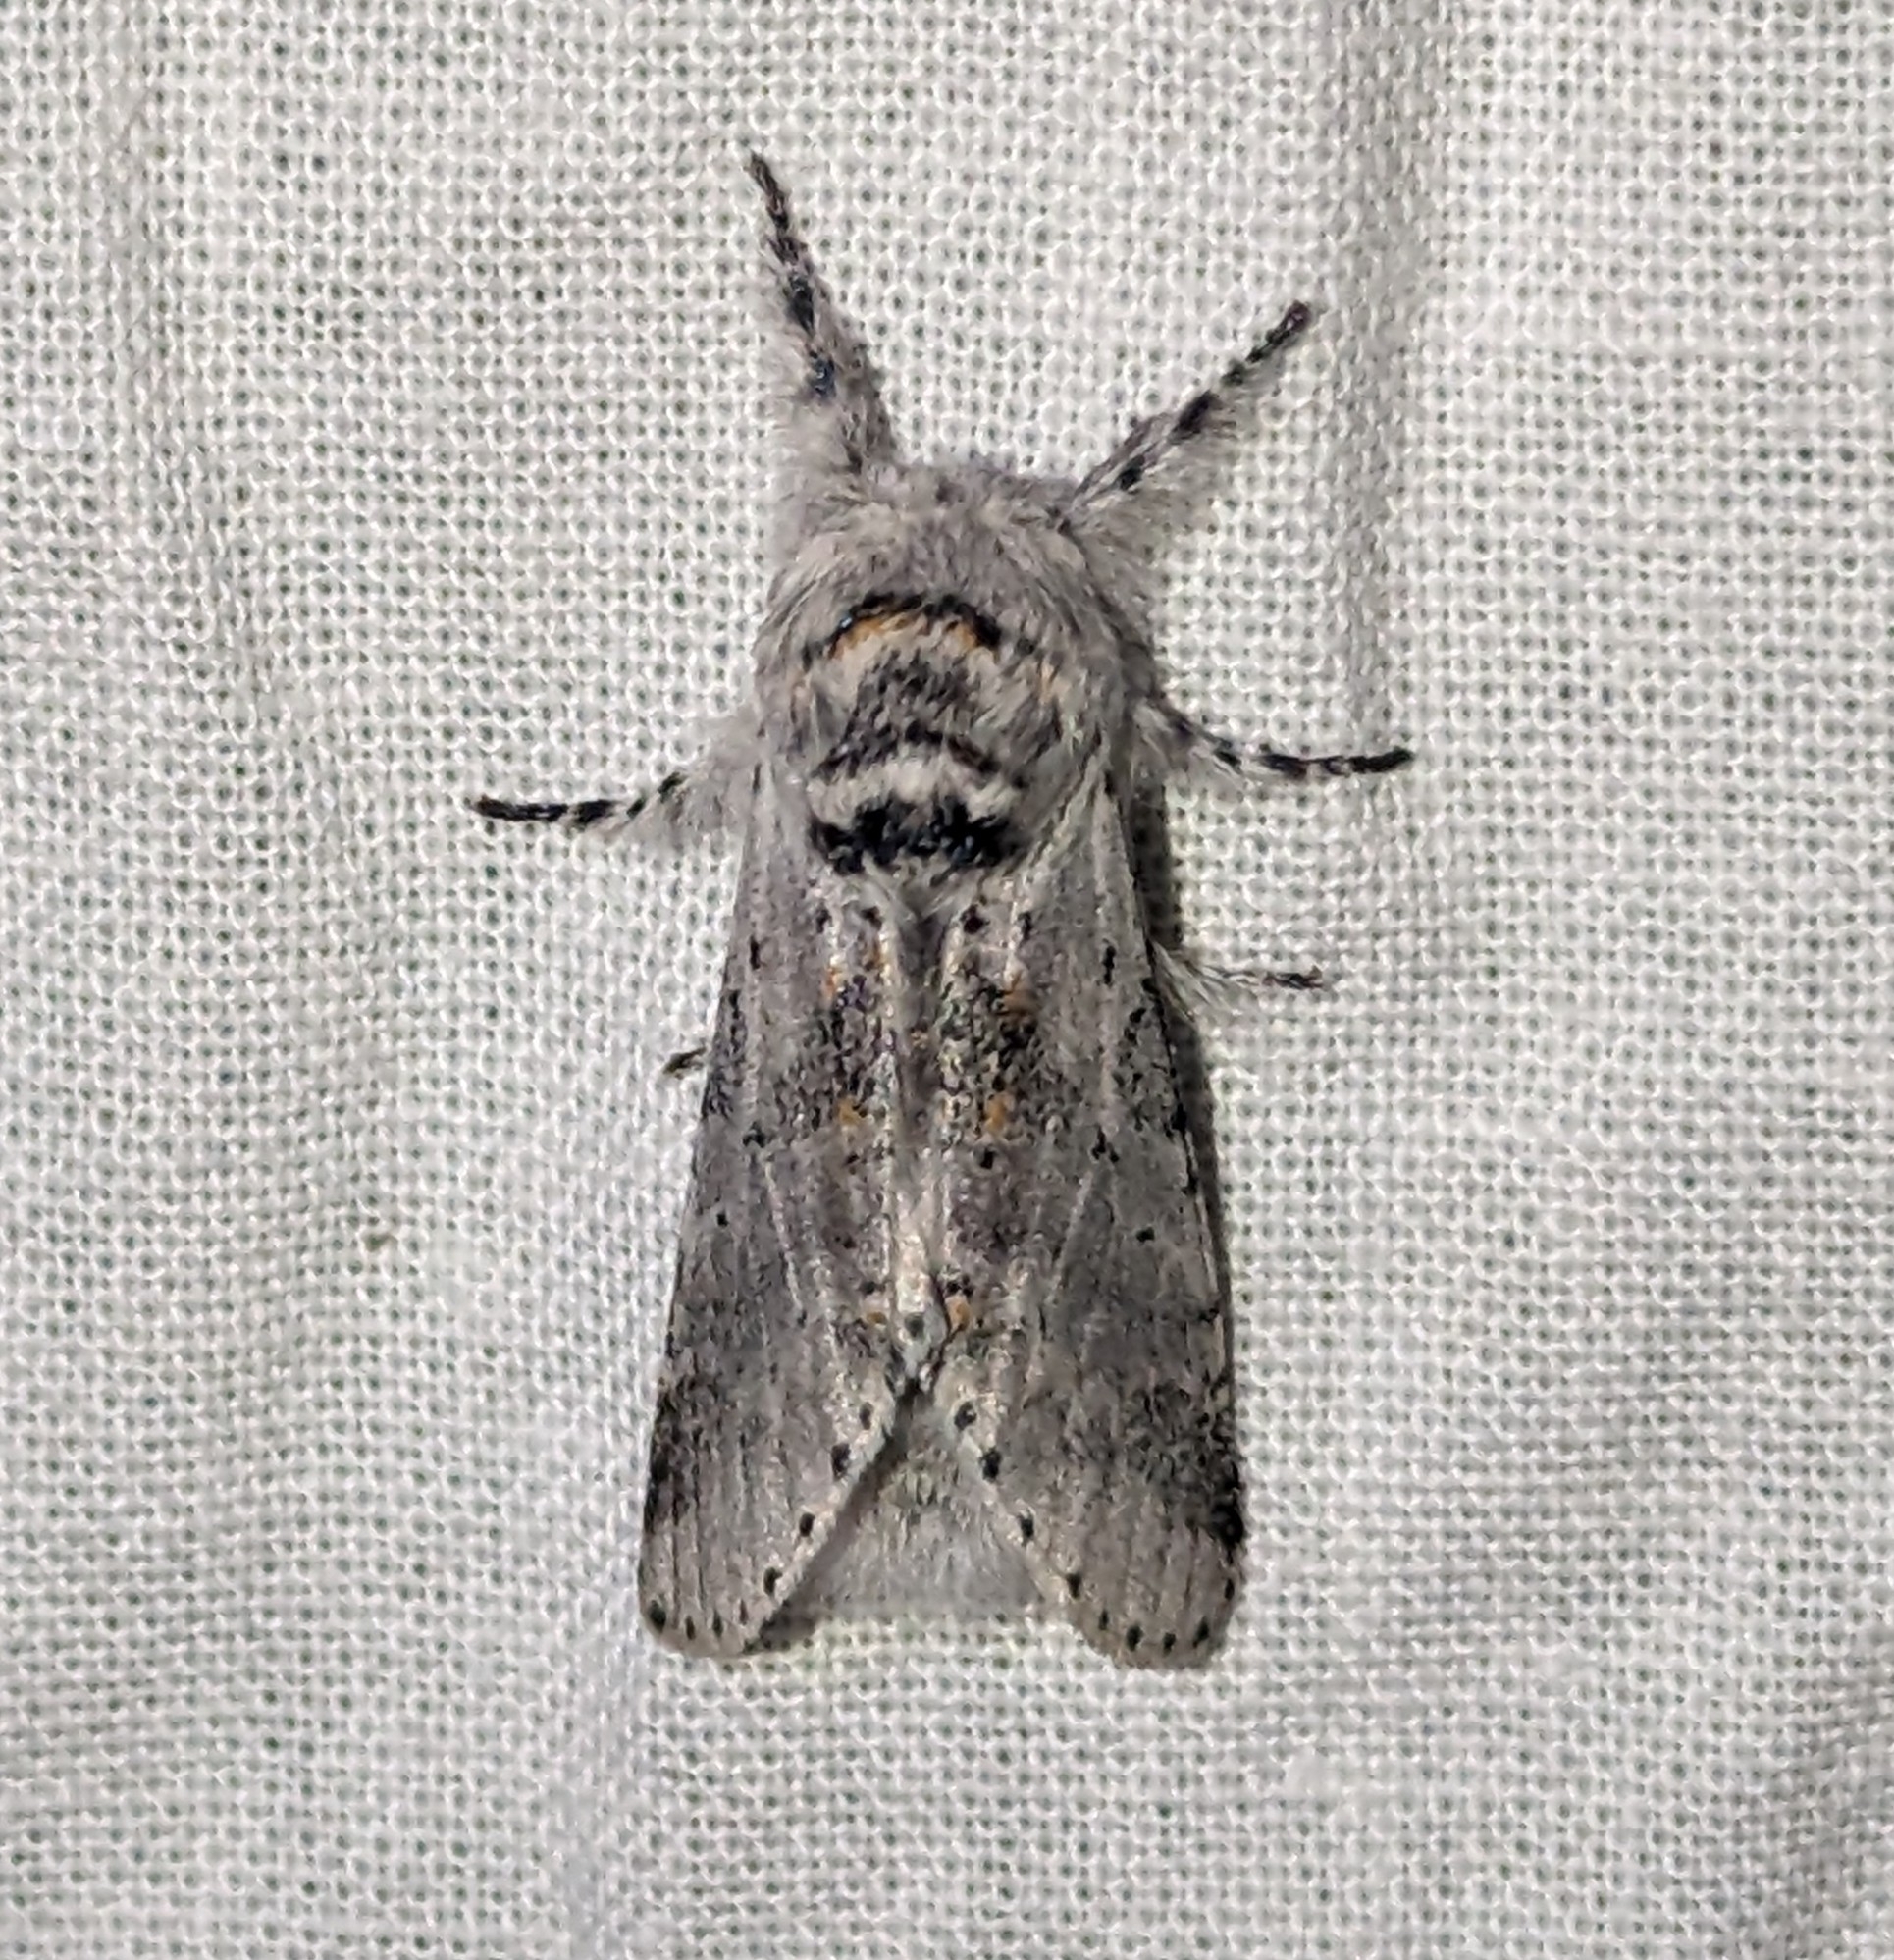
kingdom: Animalia
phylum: Arthropoda
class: Insecta
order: Lepidoptera
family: Notodontidae
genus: Furcula
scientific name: Furcula cinerea
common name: Gray furcula
